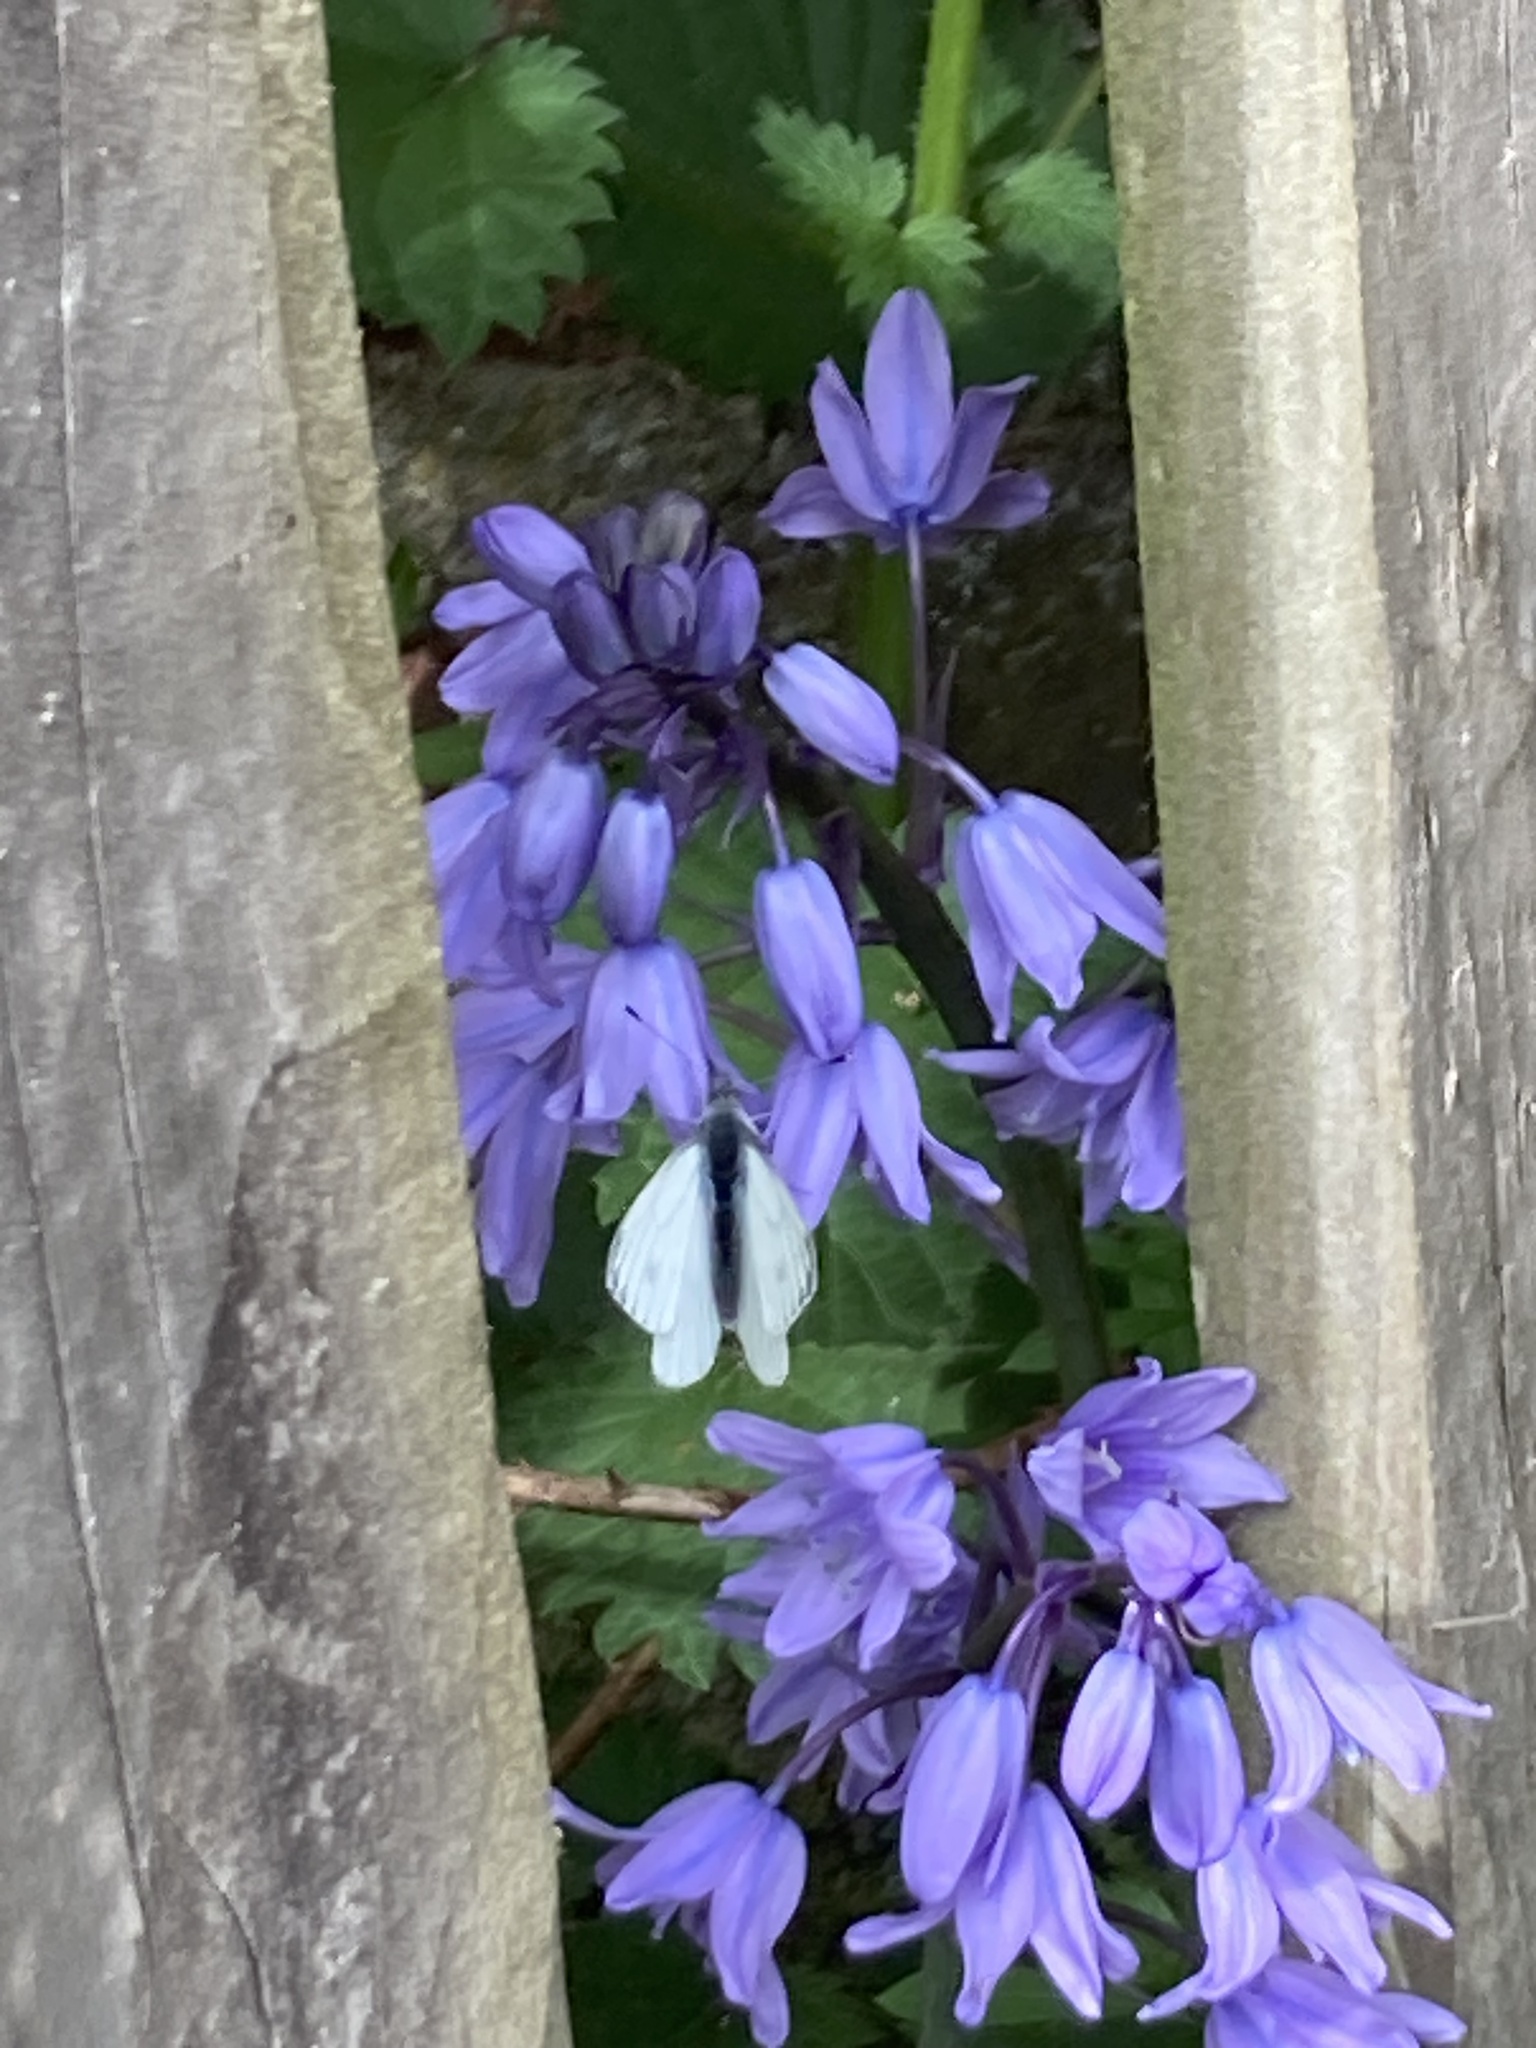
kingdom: Animalia
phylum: Arthropoda
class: Insecta
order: Lepidoptera
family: Pieridae
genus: Pieris
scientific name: Pieris napi
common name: Green-veined white
